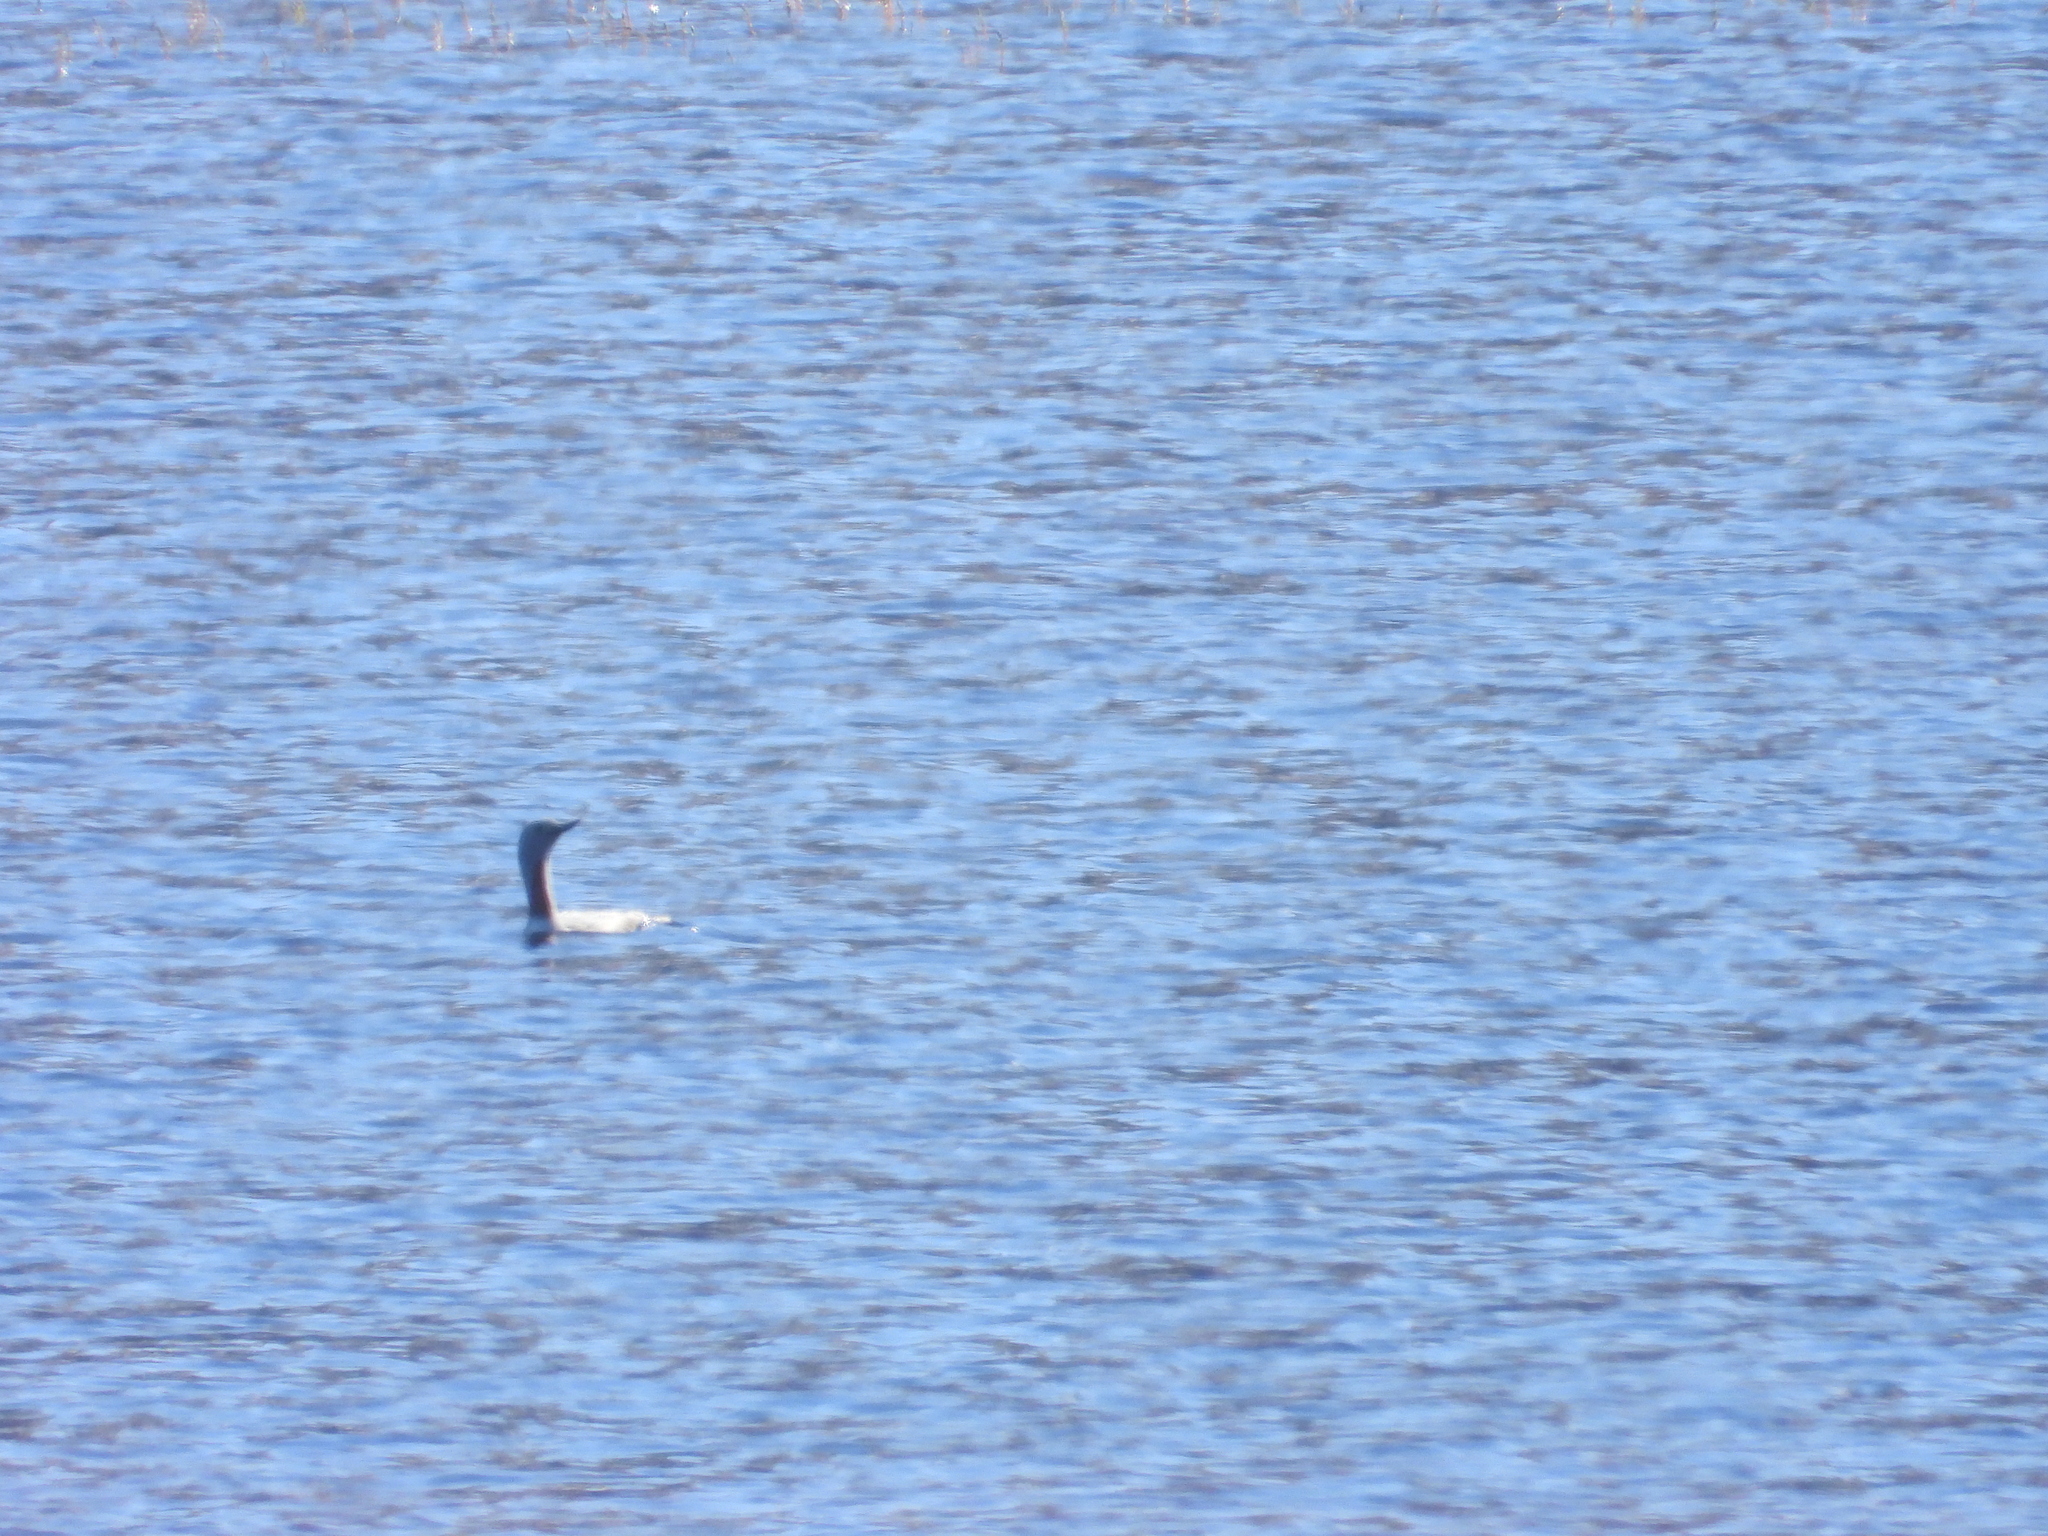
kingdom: Animalia
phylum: Chordata
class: Aves
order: Gaviiformes
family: Gaviidae
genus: Gavia
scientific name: Gavia stellata
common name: Red-throated loon
